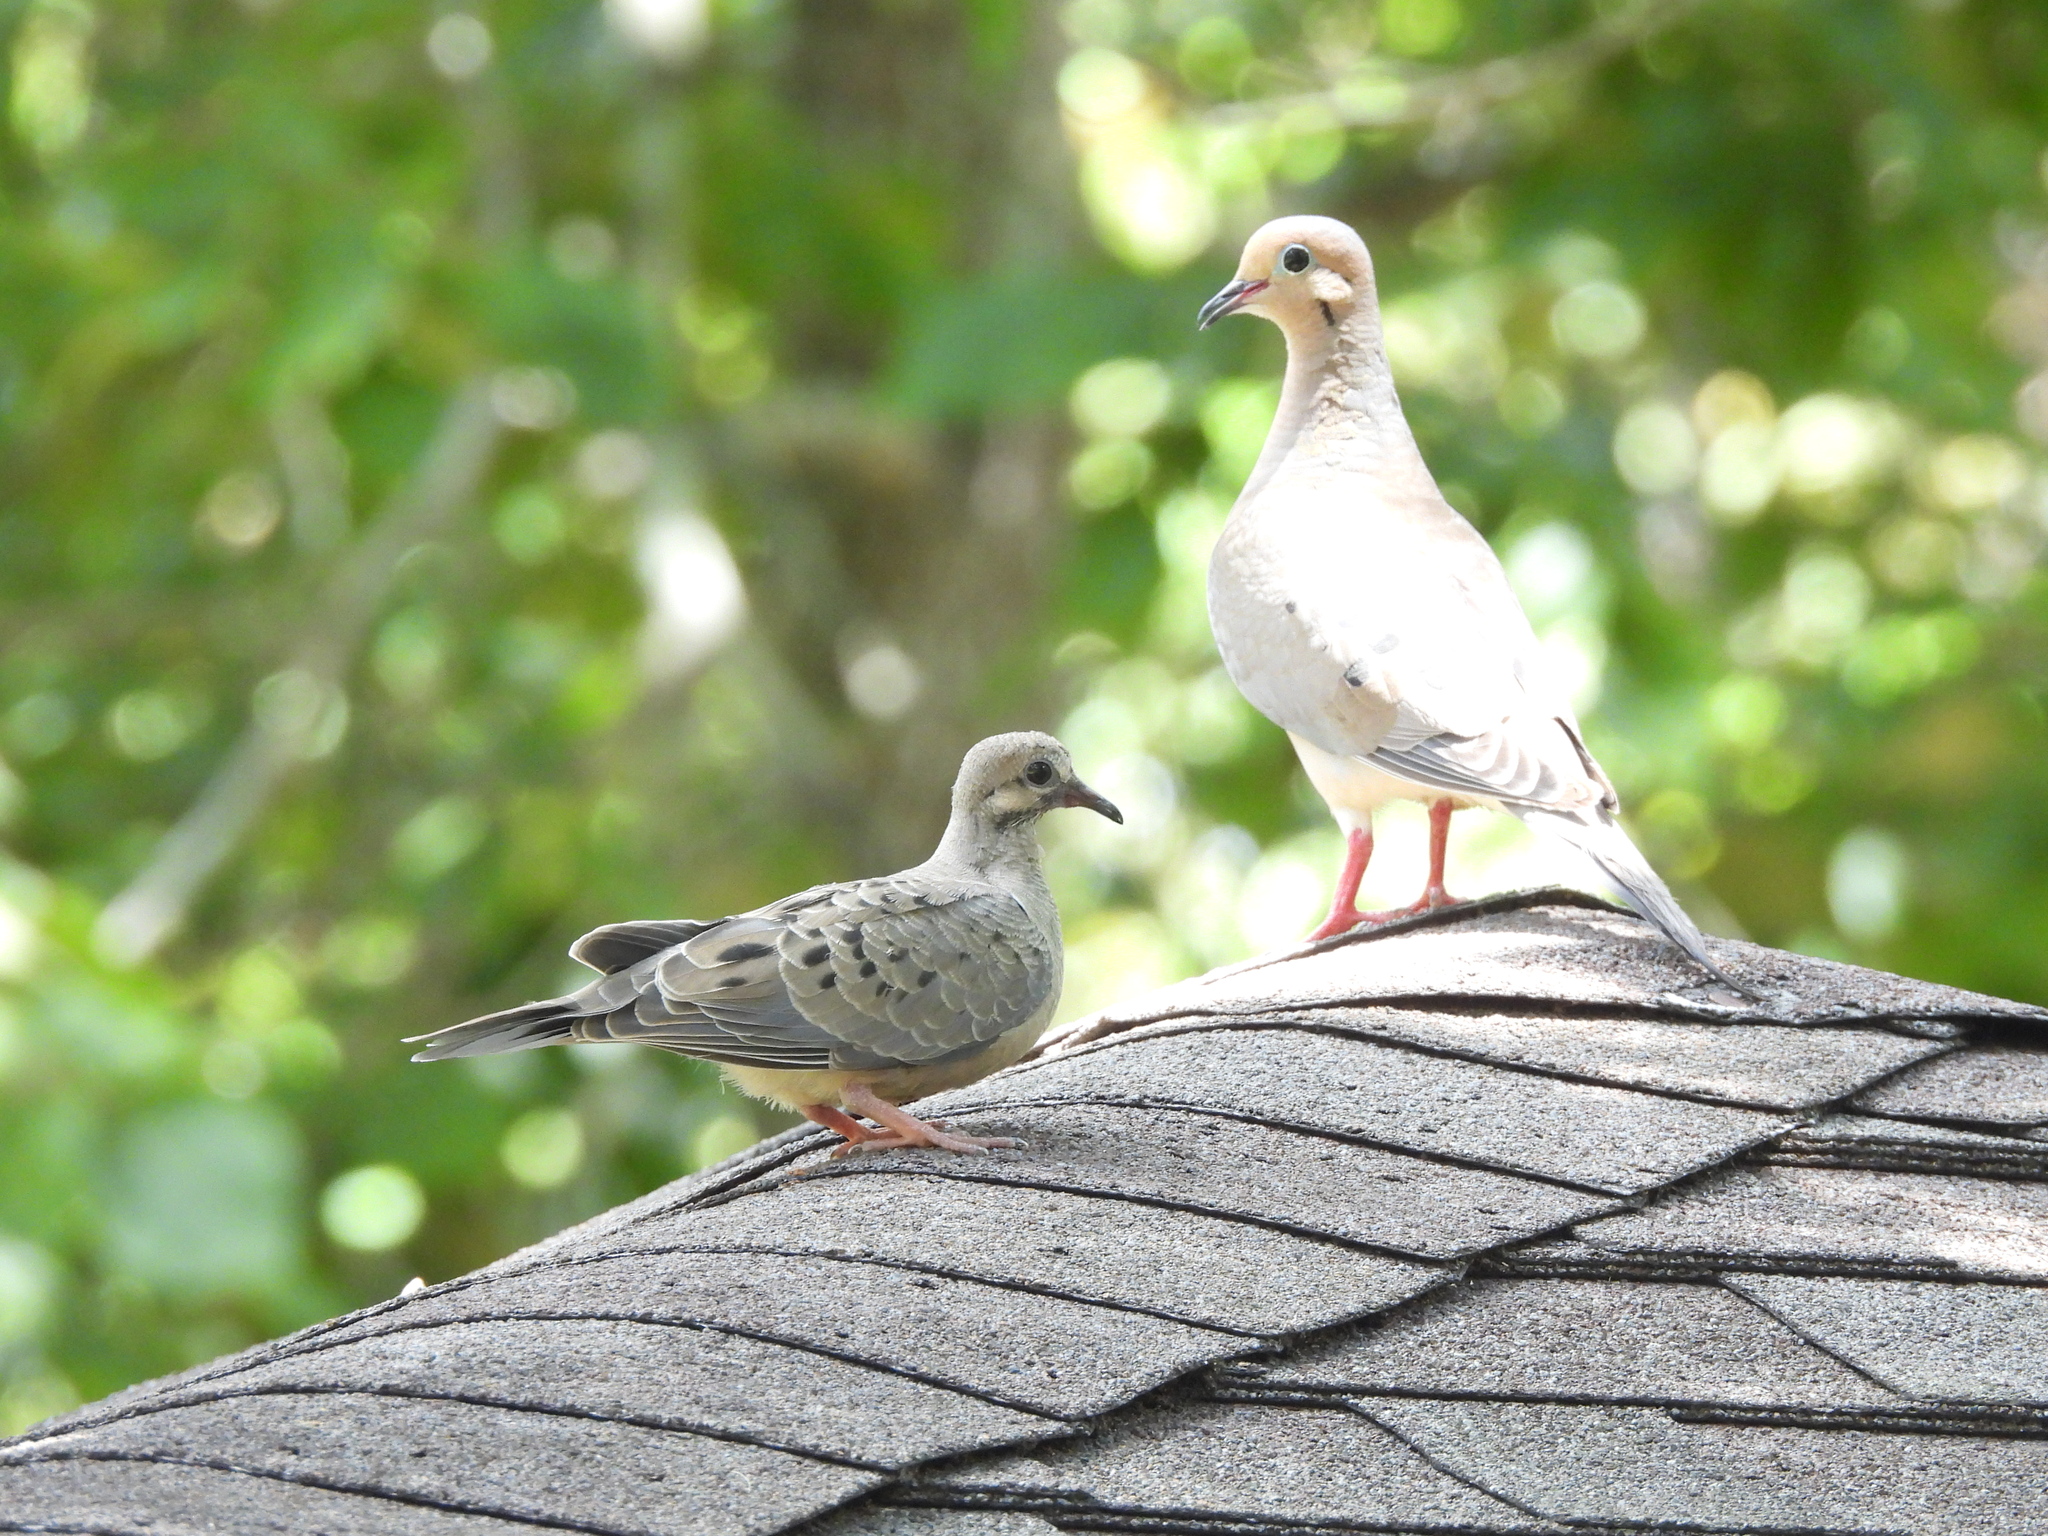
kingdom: Animalia
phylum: Chordata
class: Aves
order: Columbiformes
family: Columbidae
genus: Zenaida
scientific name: Zenaida macroura
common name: Mourning dove
